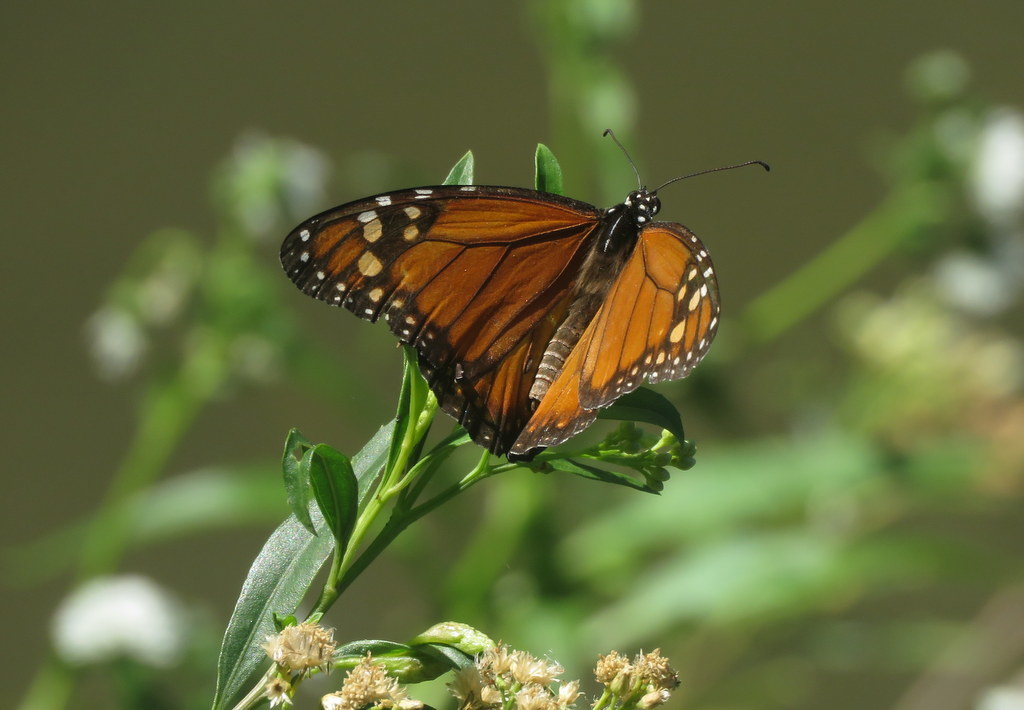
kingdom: Animalia
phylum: Arthropoda
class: Insecta
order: Lepidoptera
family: Nymphalidae
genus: Danaus
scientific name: Danaus erippus
